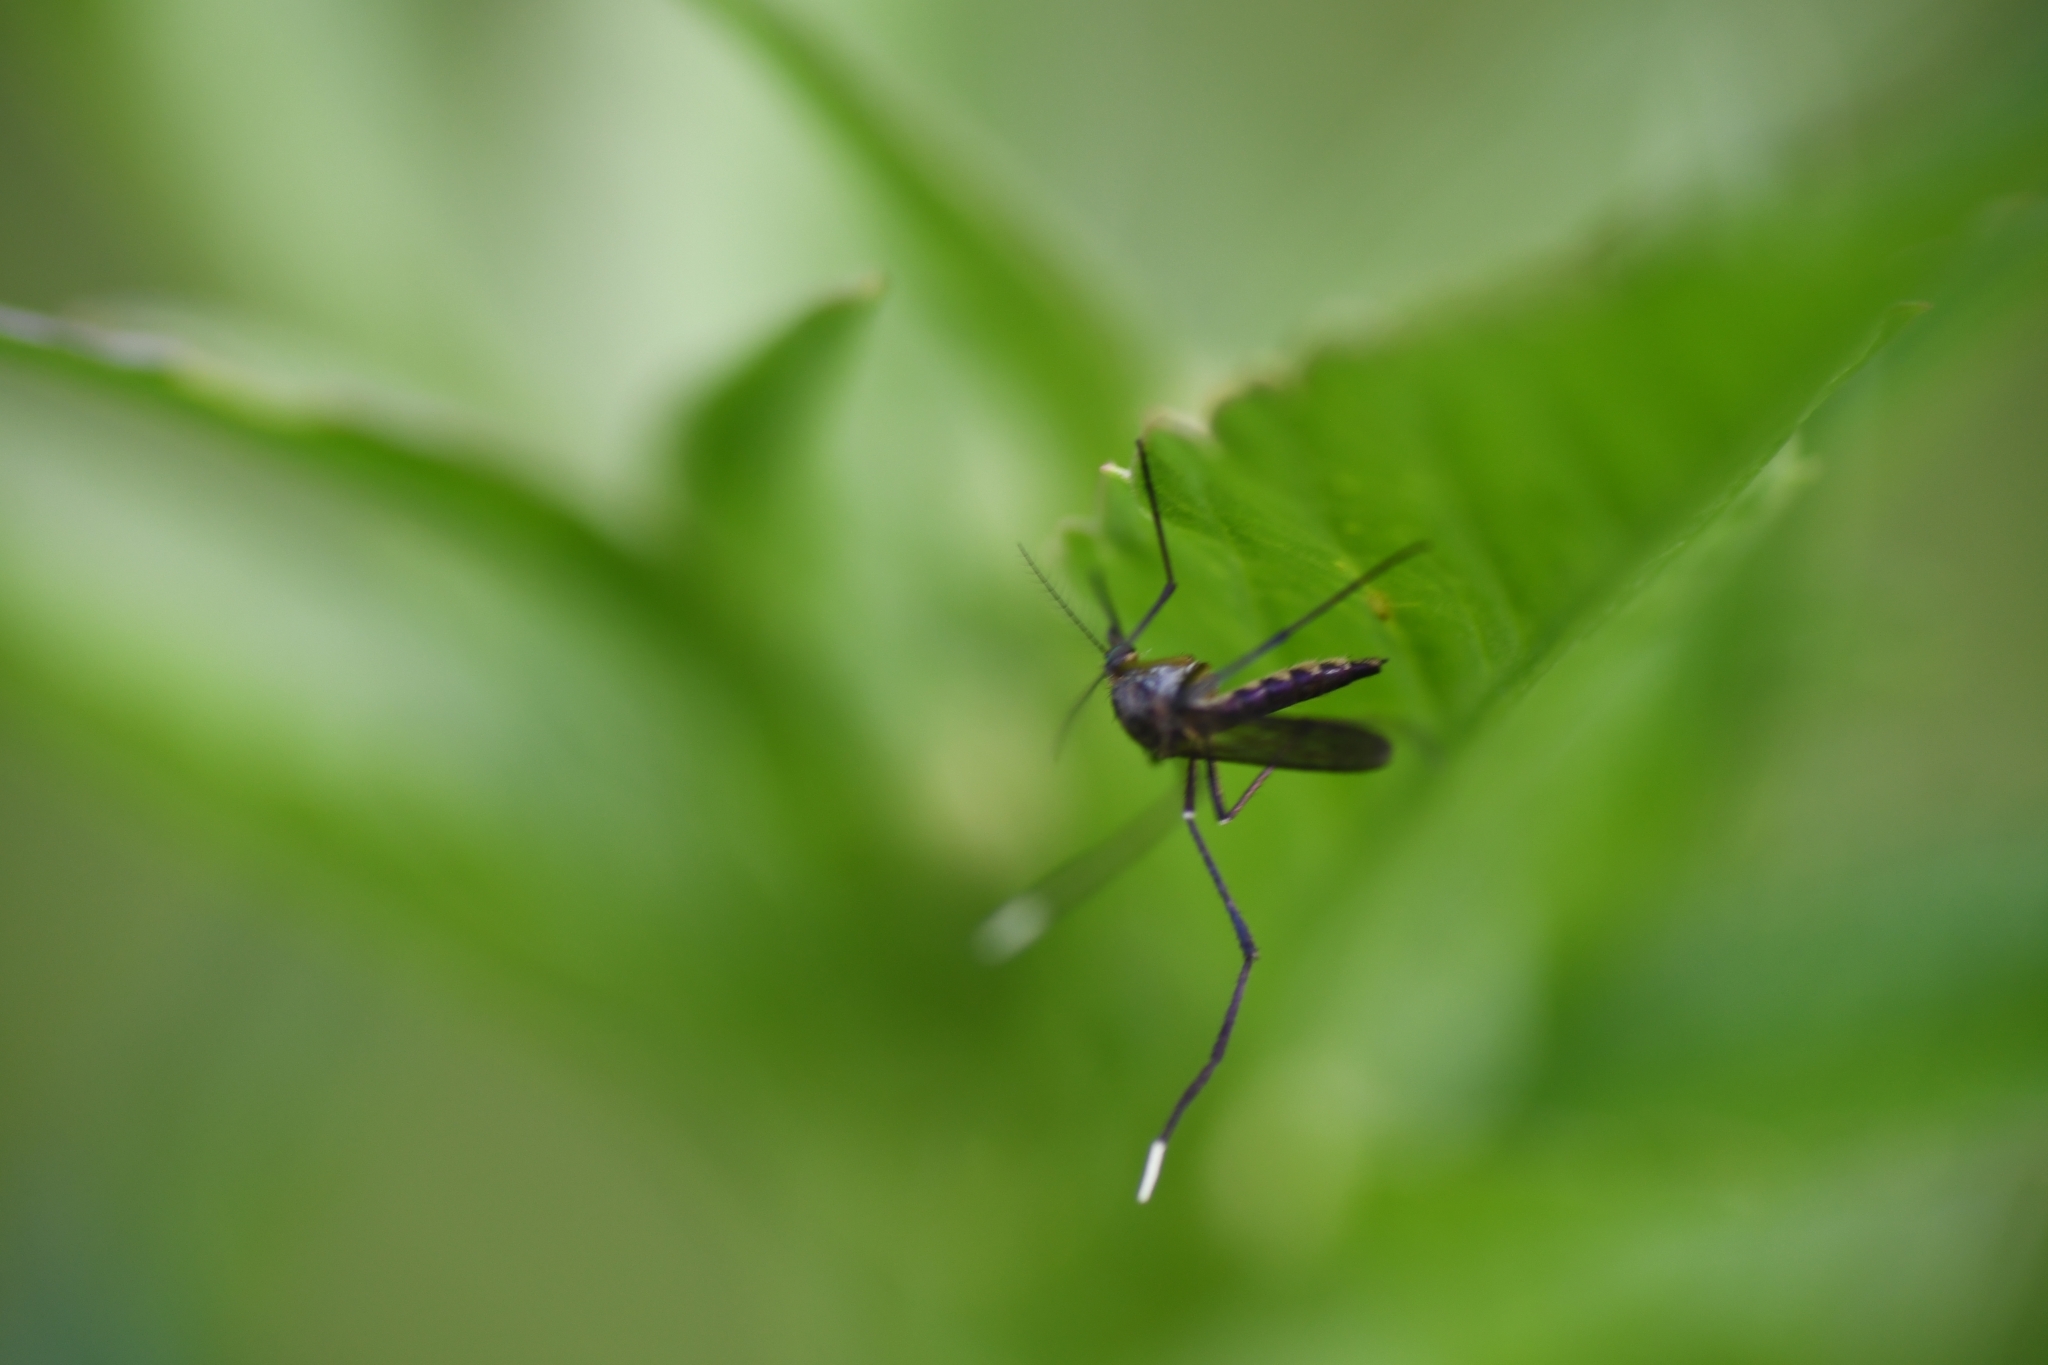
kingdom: Animalia
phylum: Arthropoda
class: Insecta
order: Diptera
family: Culicidae
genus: Psorophora
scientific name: Psorophora ferox
